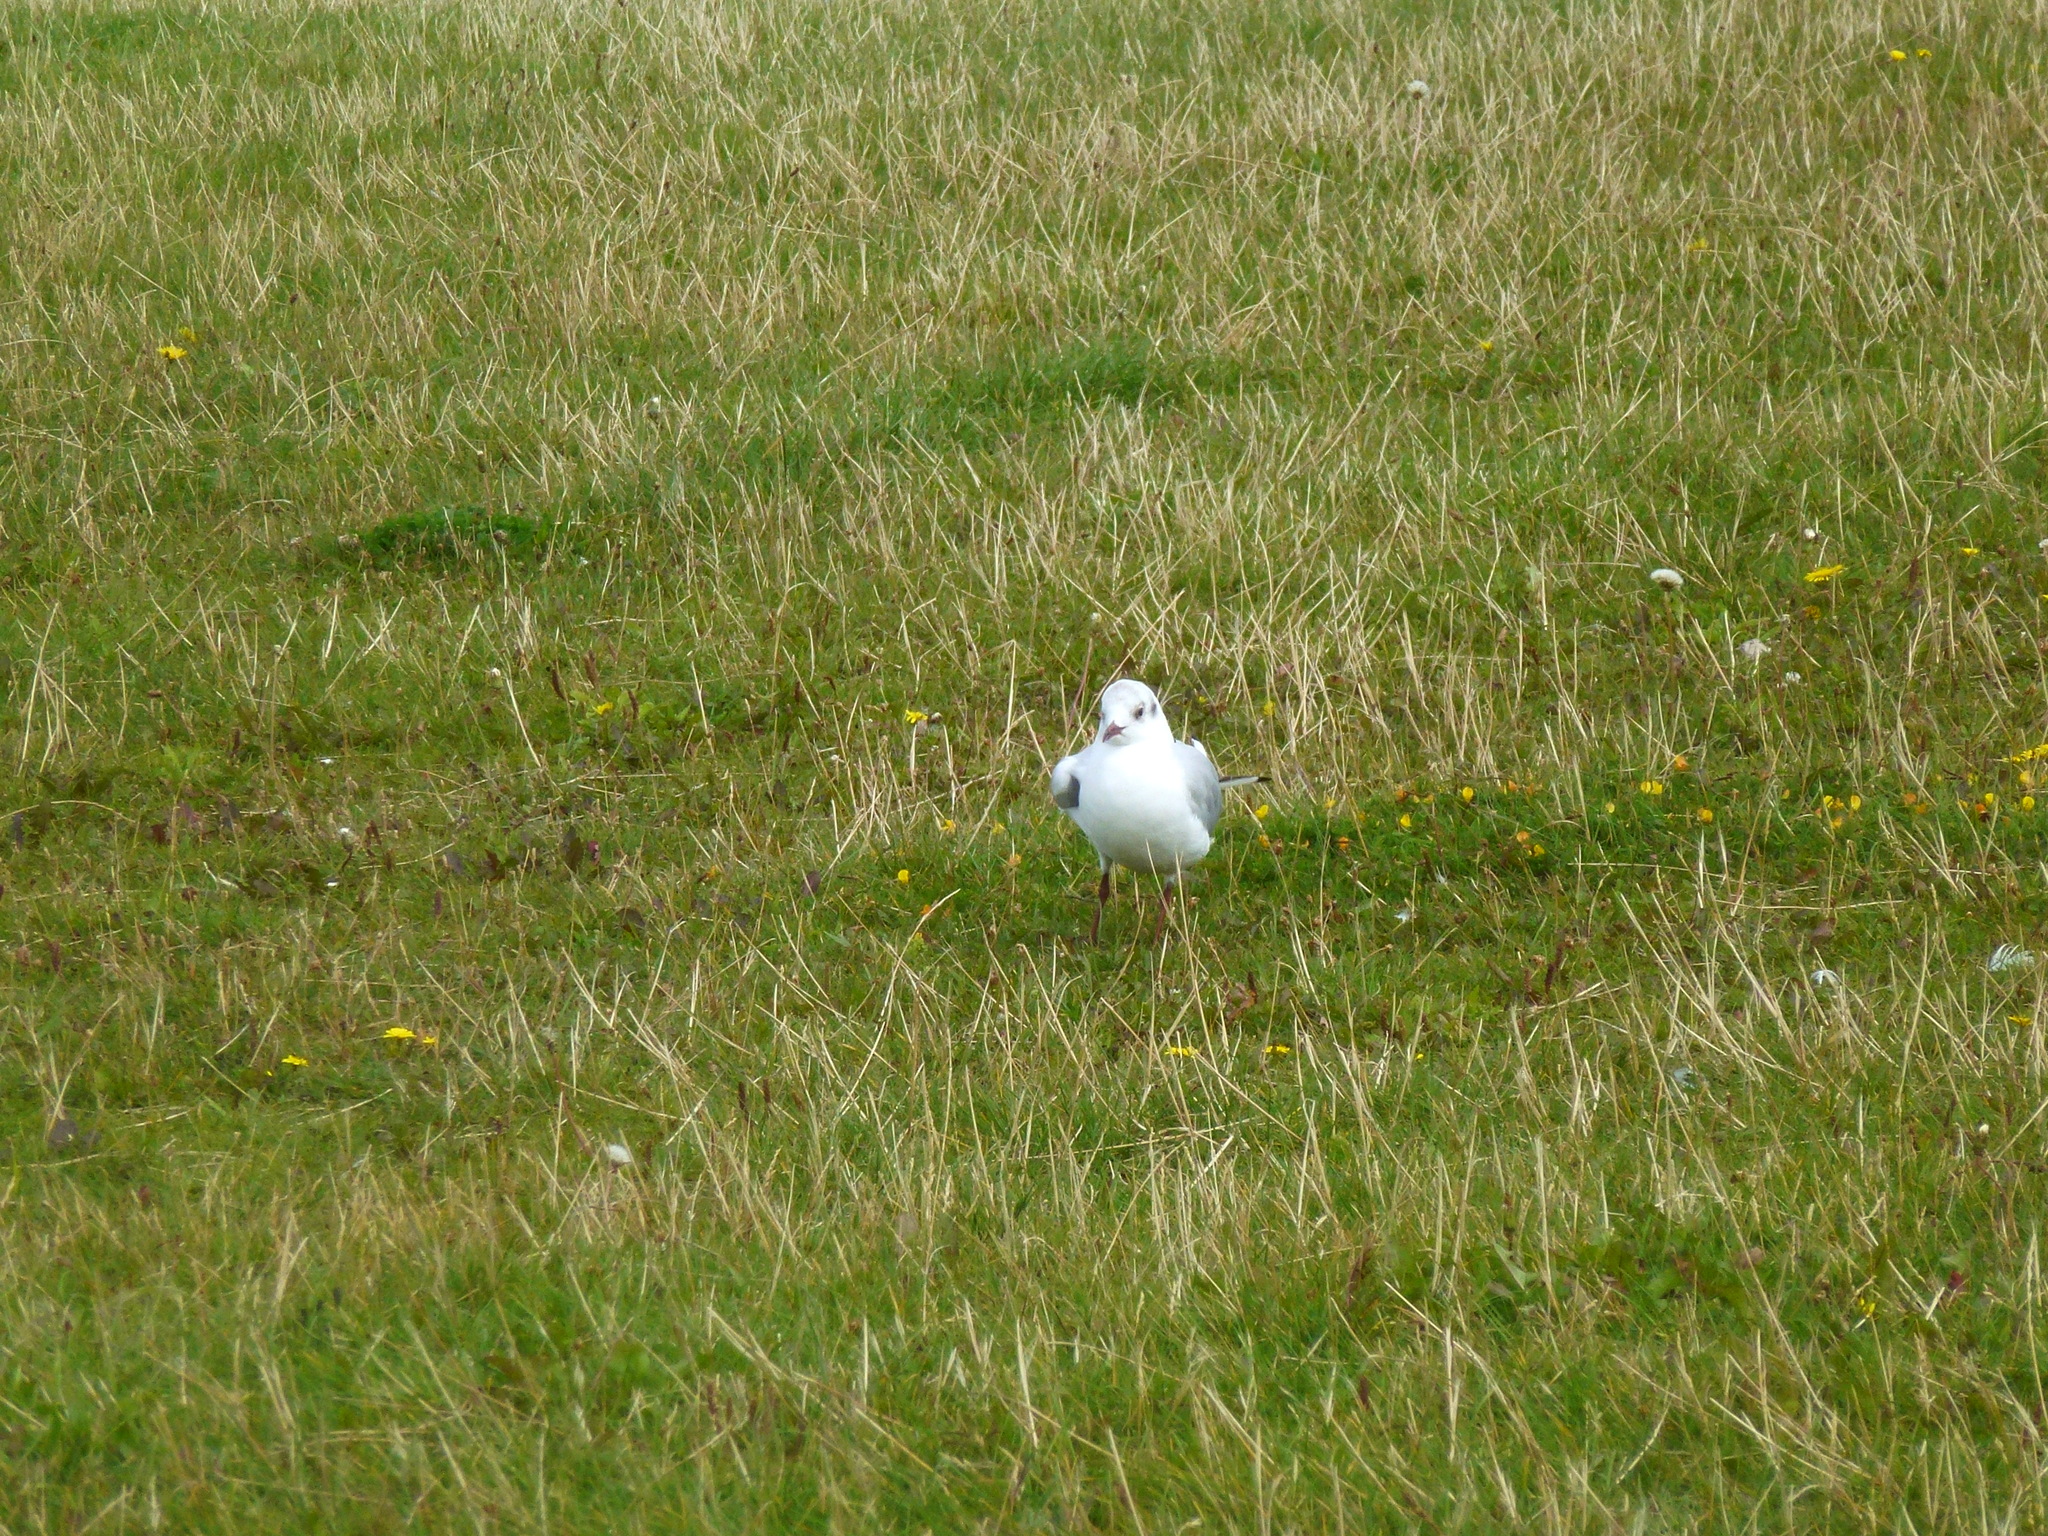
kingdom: Animalia
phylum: Chordata
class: Aves
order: Charadriiformes
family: Laridae
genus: Chroicocephalus
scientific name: Chroicocephalus ridibundus
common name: Black-headed gull
